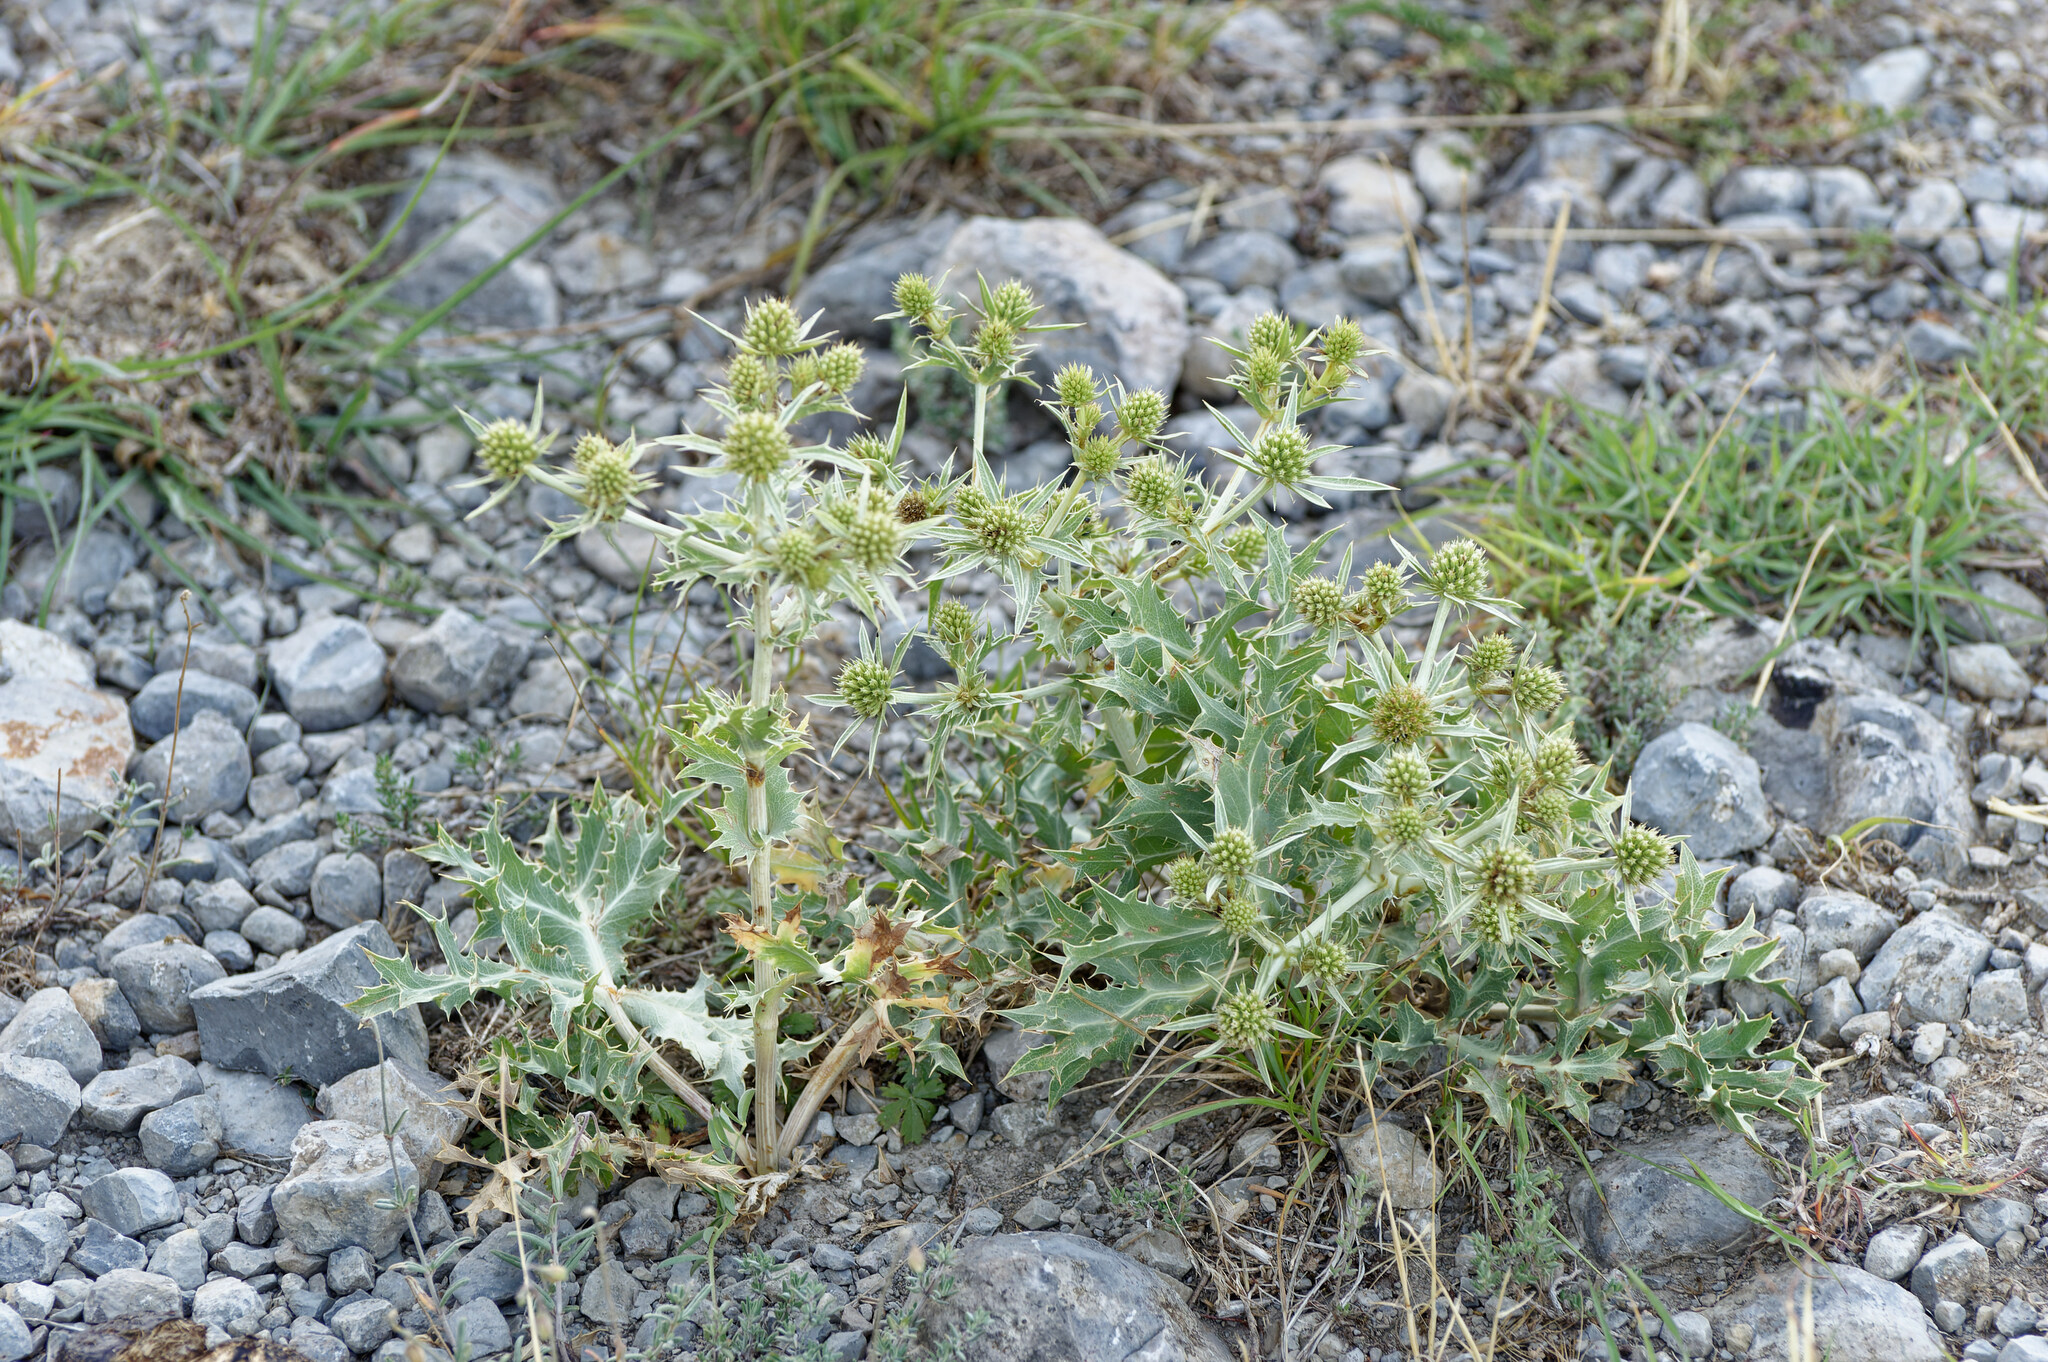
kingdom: Plantae
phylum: Tracheophyta
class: Magnoliopsida
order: Apiales
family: Apiaceae
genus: Eryngium
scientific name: Eryngium campestre
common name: Field eryngo
